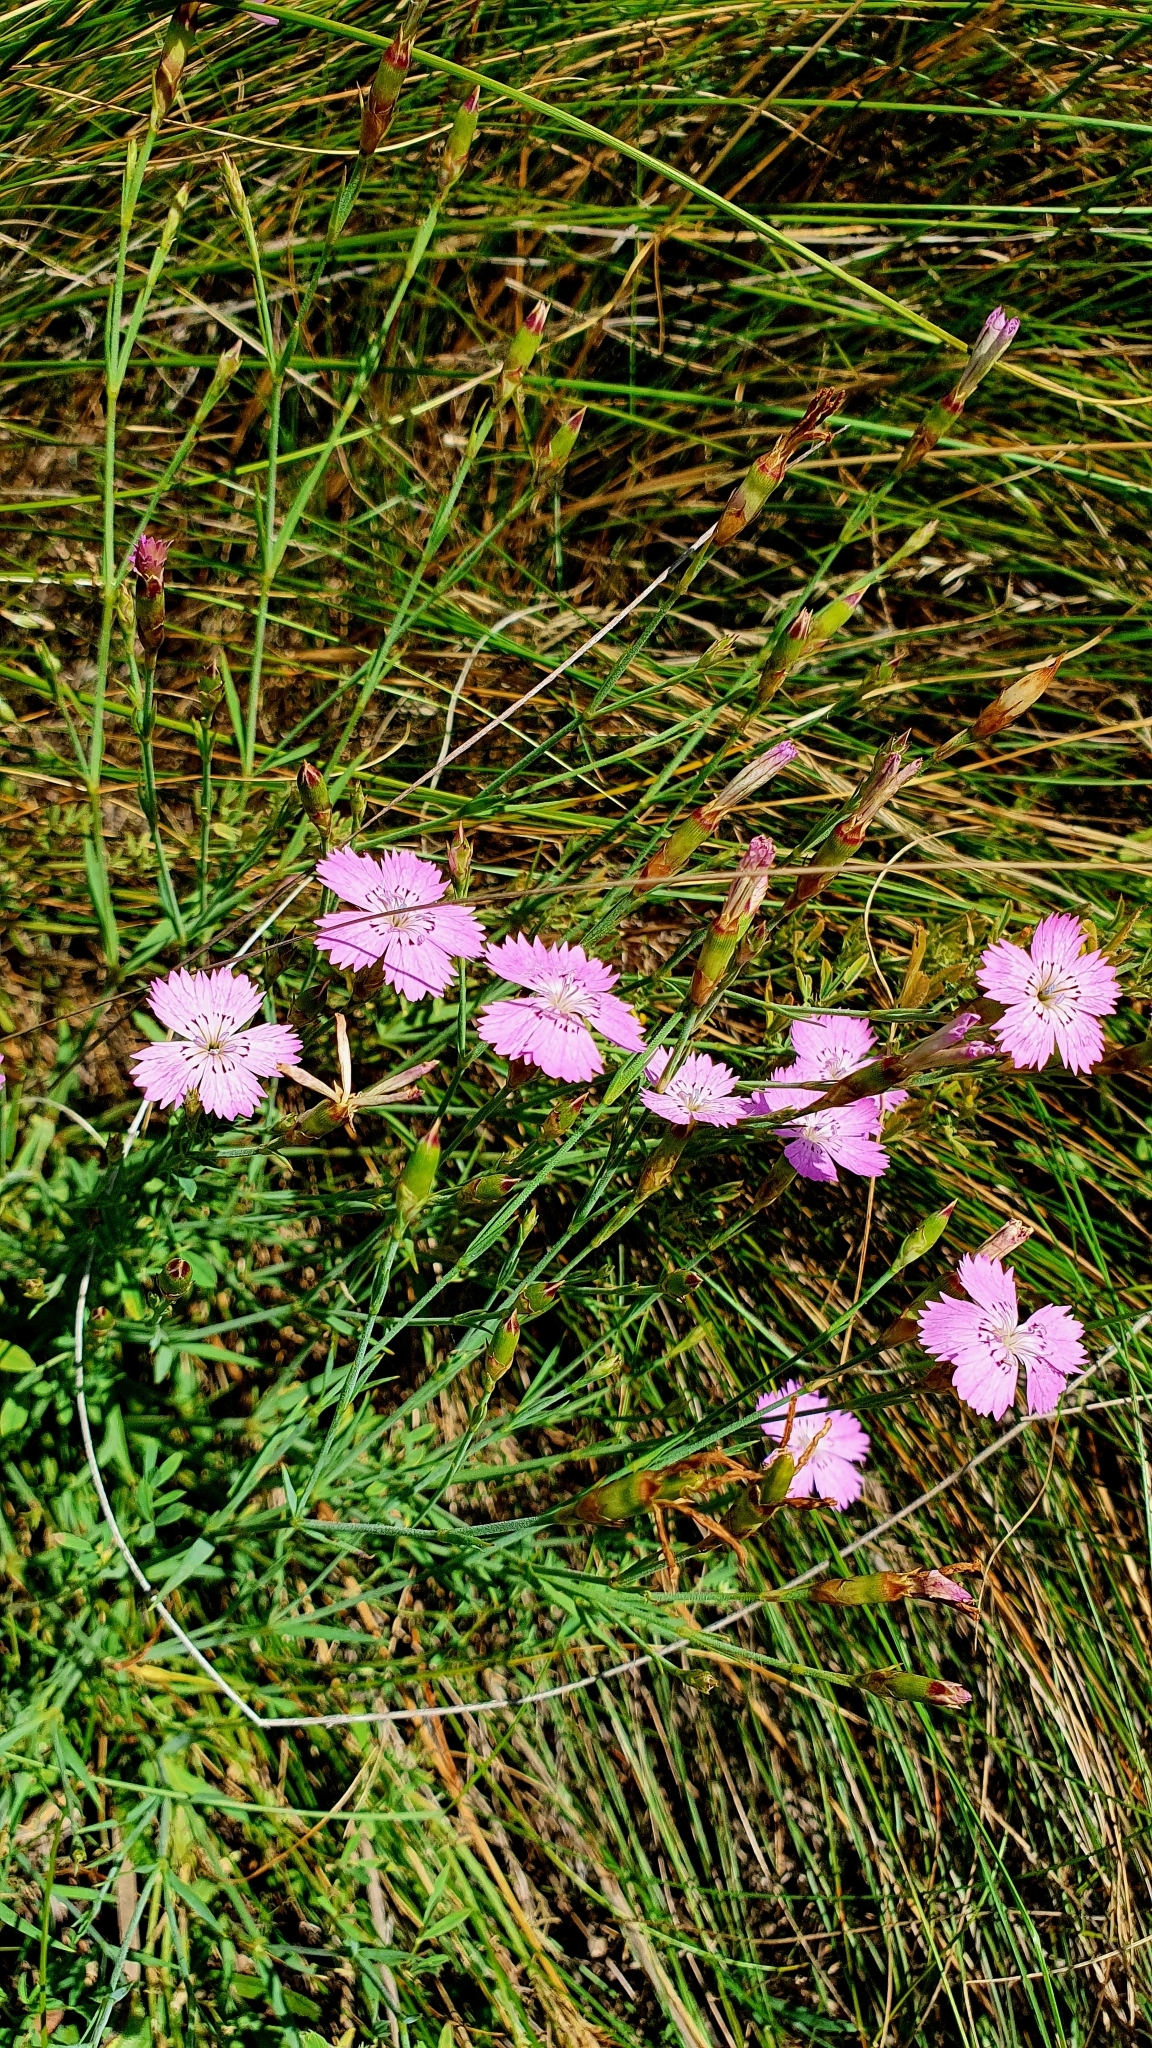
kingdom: Plantae
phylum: Tracheophyta
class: Magnoliopsida
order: Caryophyllales
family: Caryophyllaceae
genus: Dianthus
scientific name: Dianthus chinensis
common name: Rainbow pink
